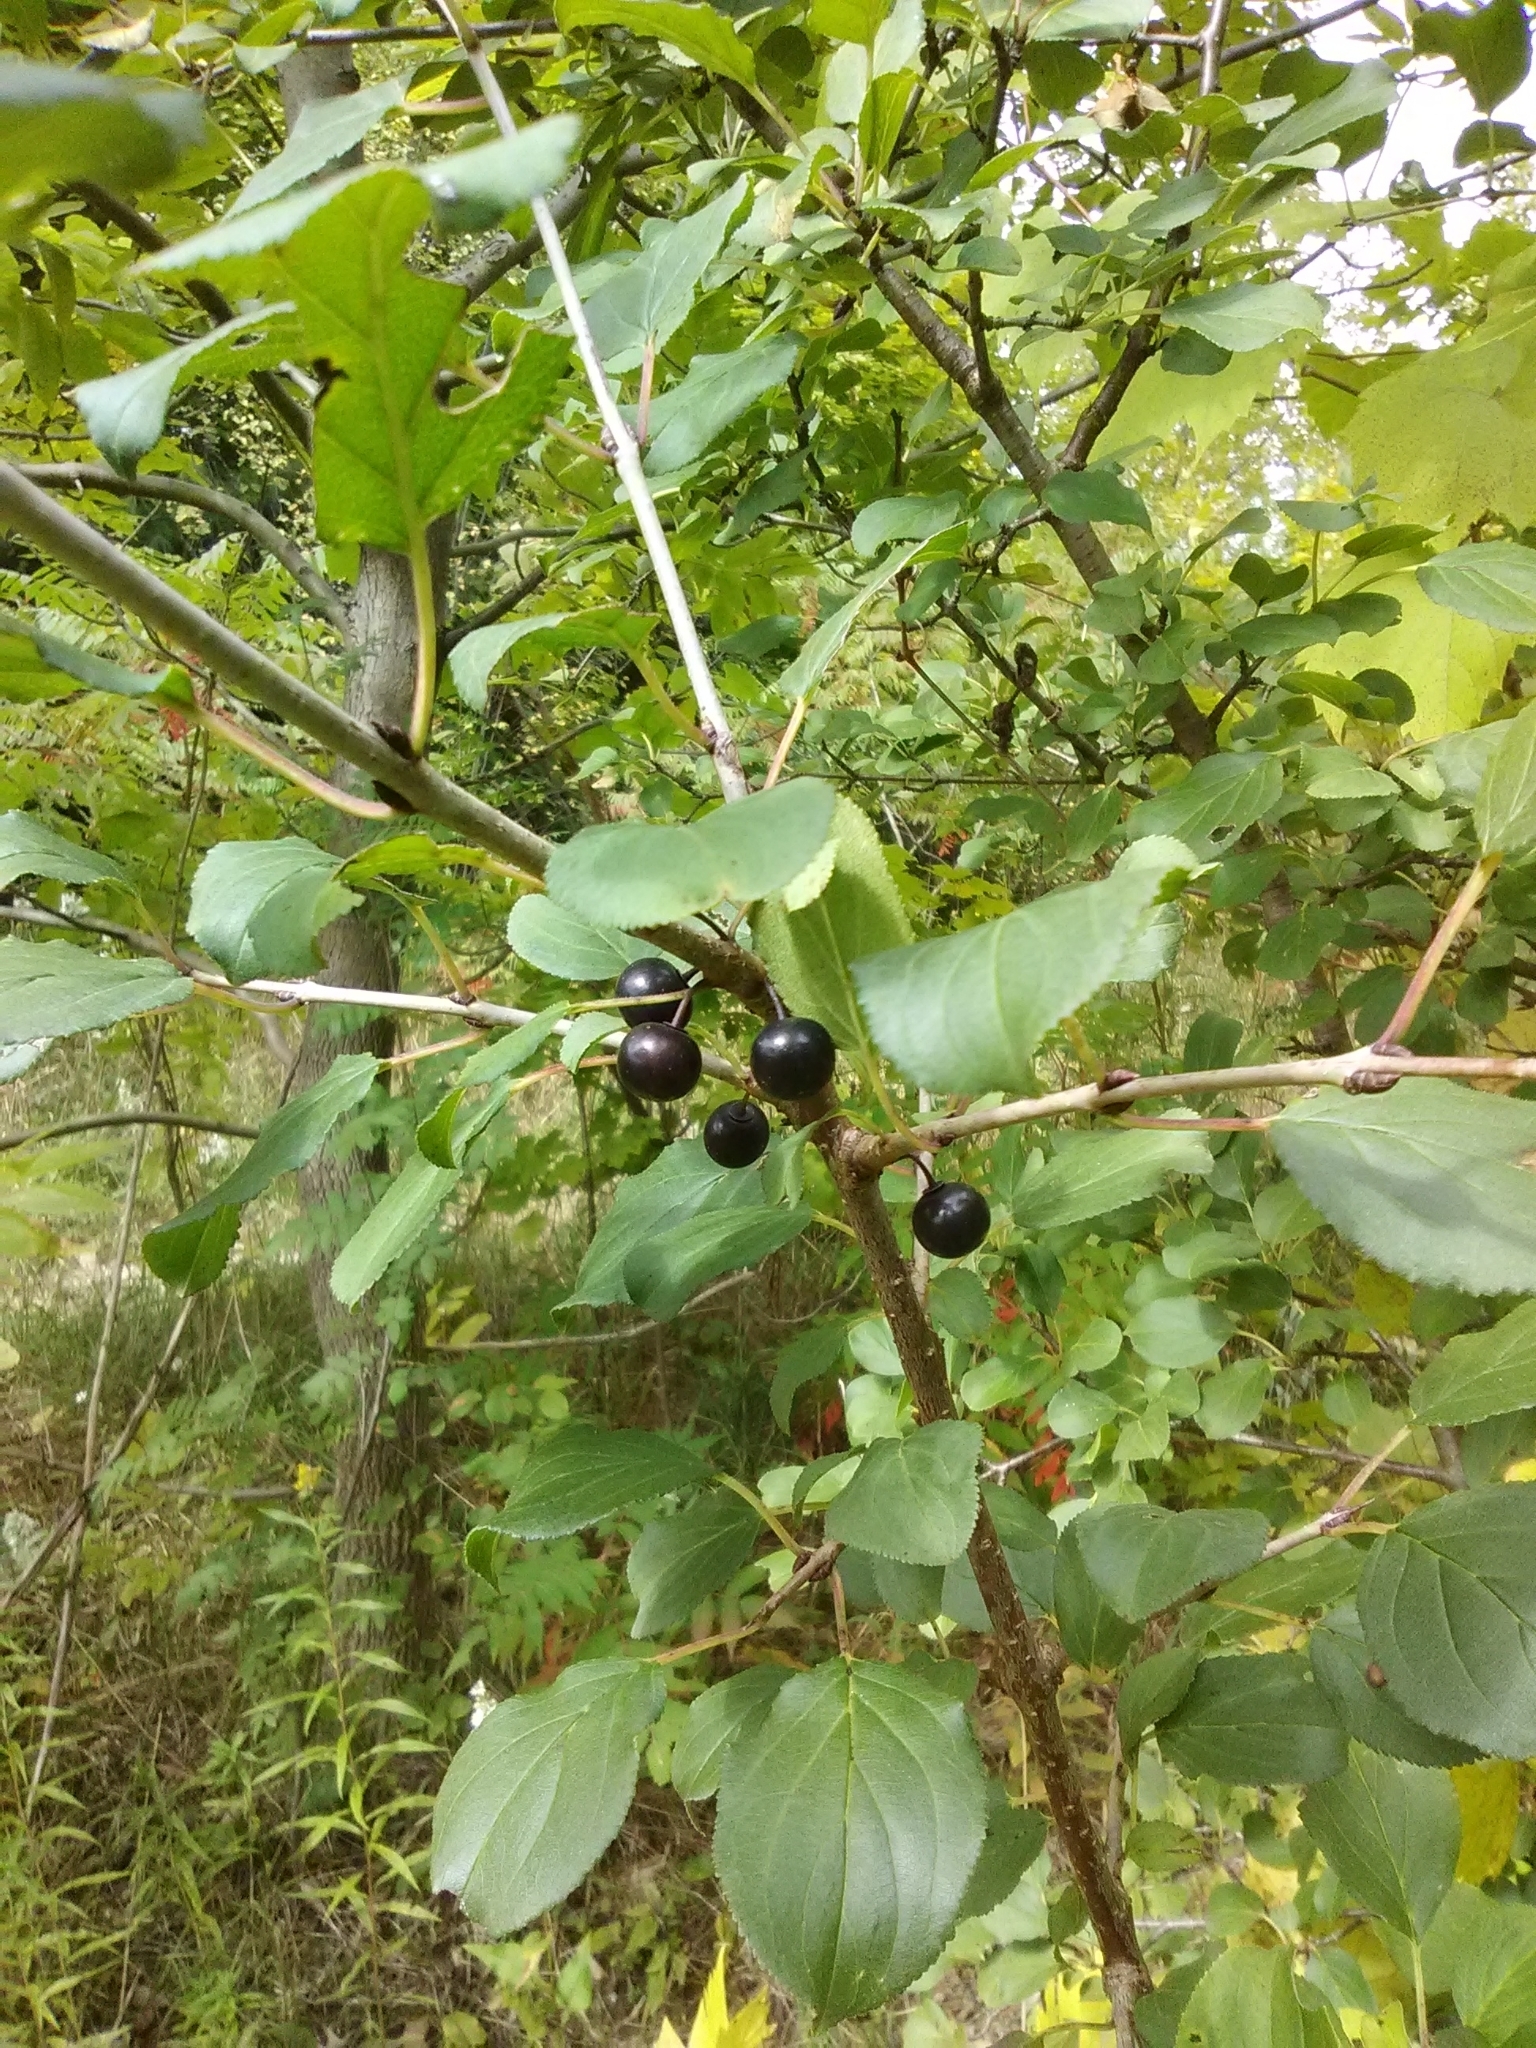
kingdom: Plantae
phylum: Tracheophyta
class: Magnoliopsida
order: Rosales
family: Rhamnaceae
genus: Rhamnus
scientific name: Rhamnus cathartica
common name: Common buckthorn
